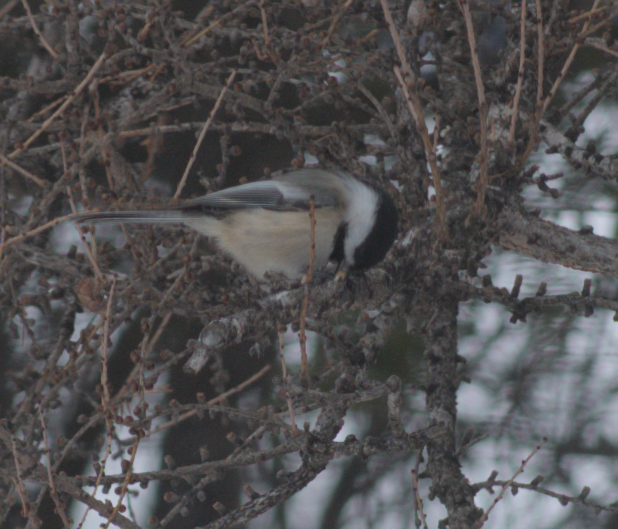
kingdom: Animalia
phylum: Chordata
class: Aves
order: Passeriformes
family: Paridae
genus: Poecile
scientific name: Poecile atricapillus
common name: Black-capped chickadee
